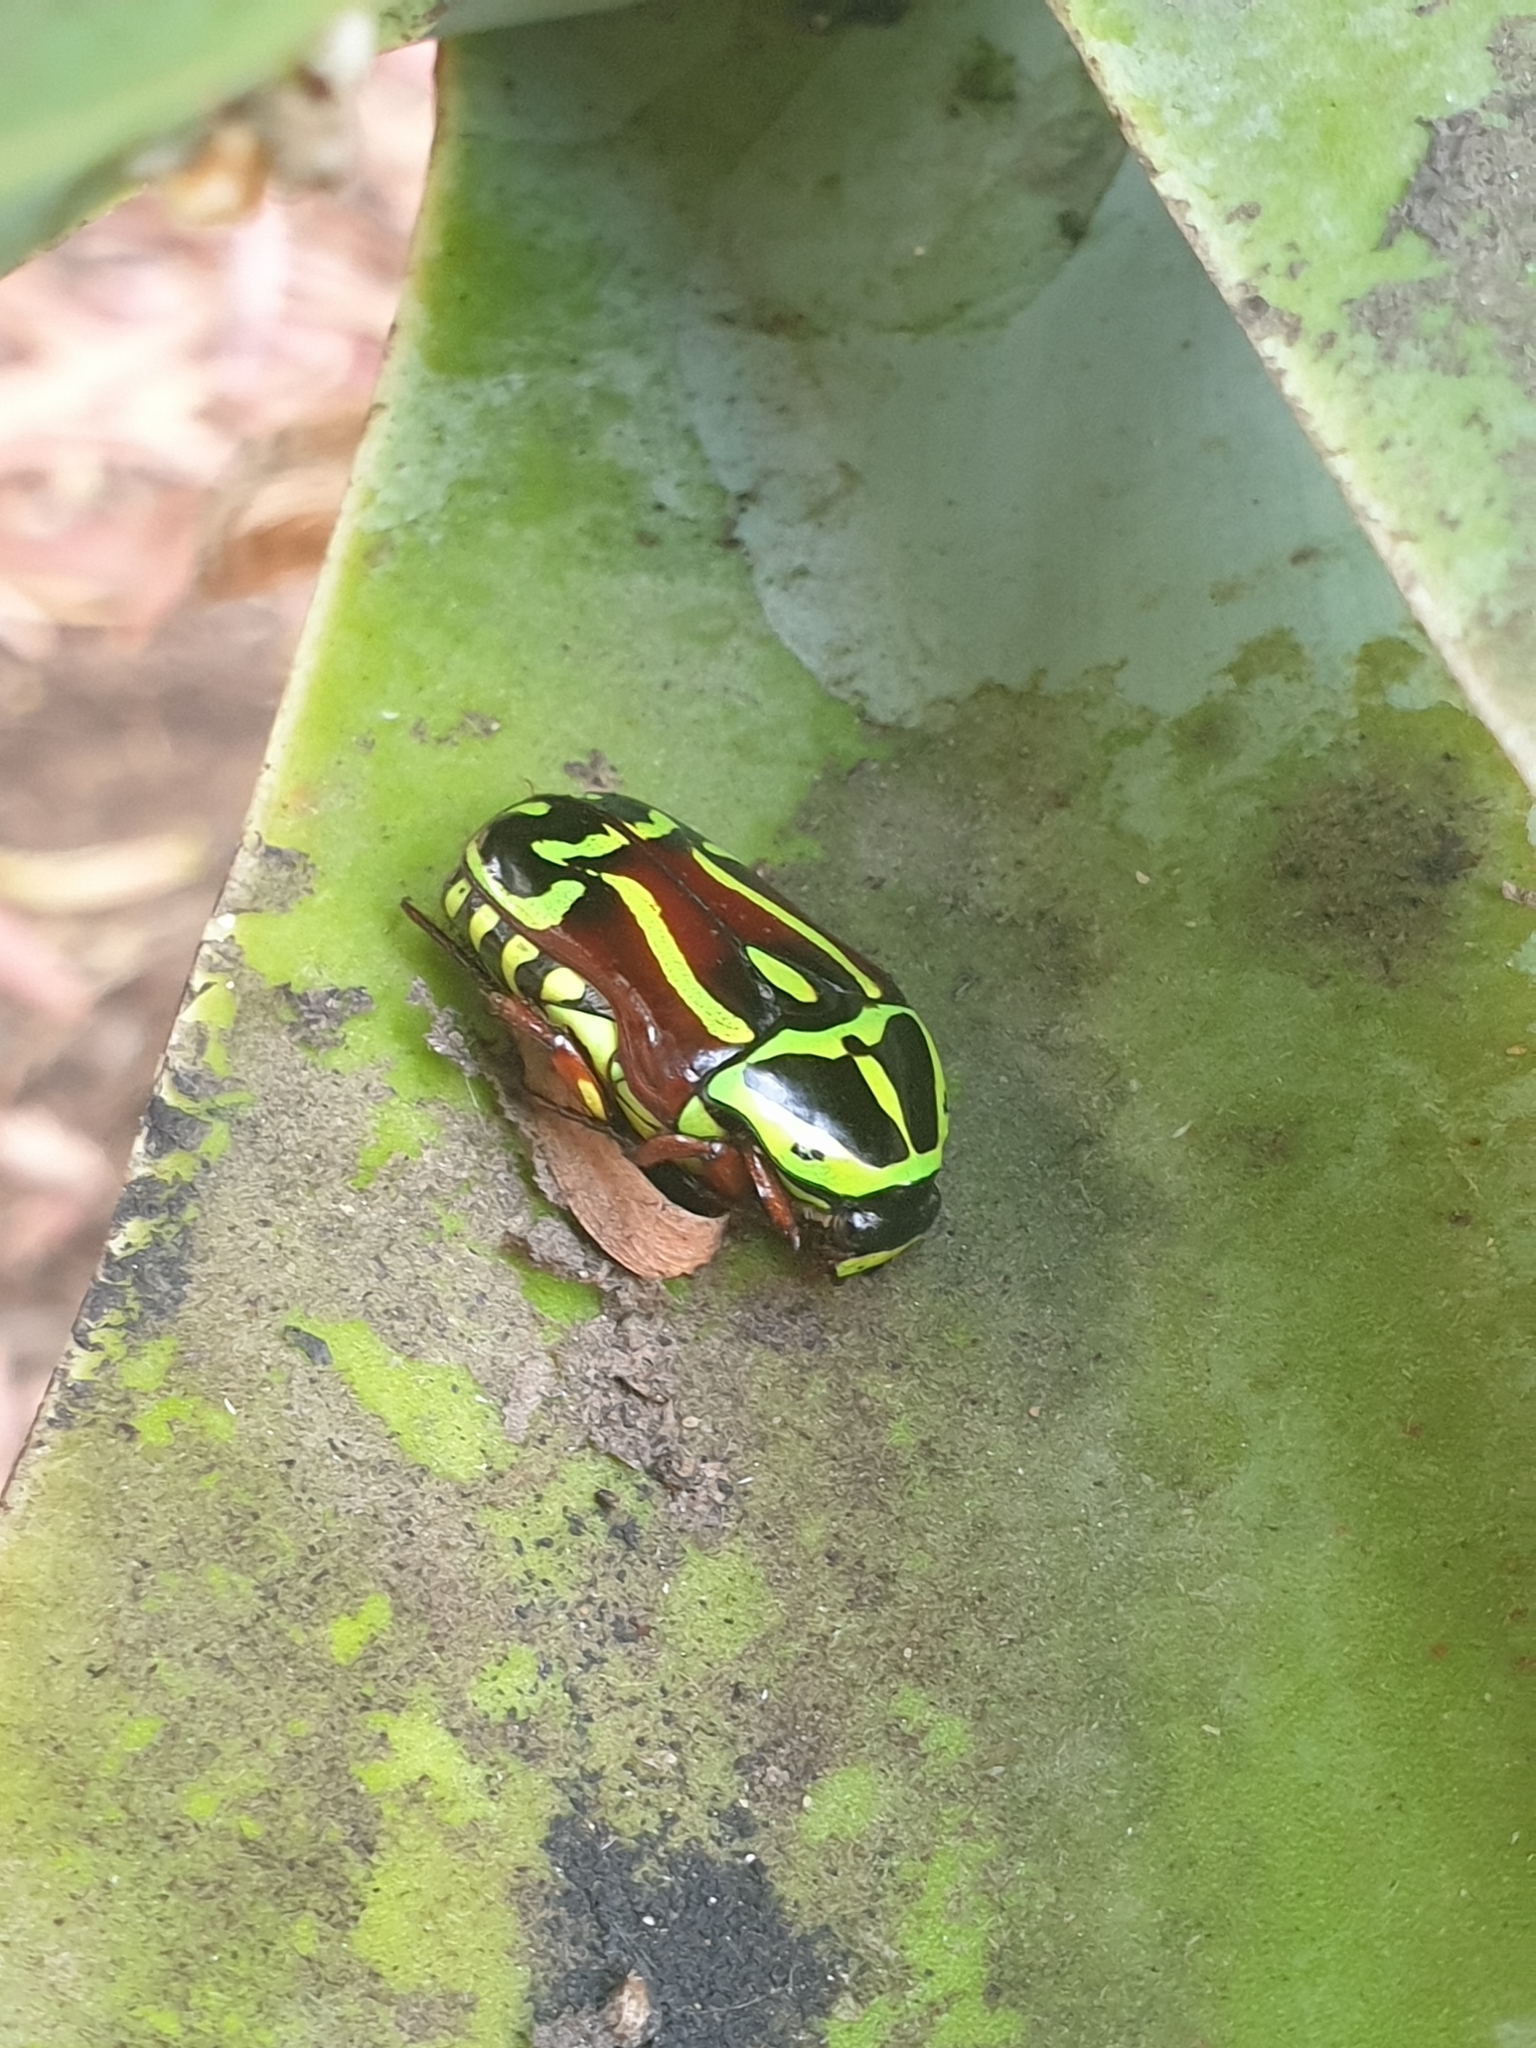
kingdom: Animalia
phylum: Arthropoda
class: Insecta
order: Coleoptera
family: Scarabaeidae
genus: Eupoecila
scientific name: Eupoecila australasiae
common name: Fiddler beetle
